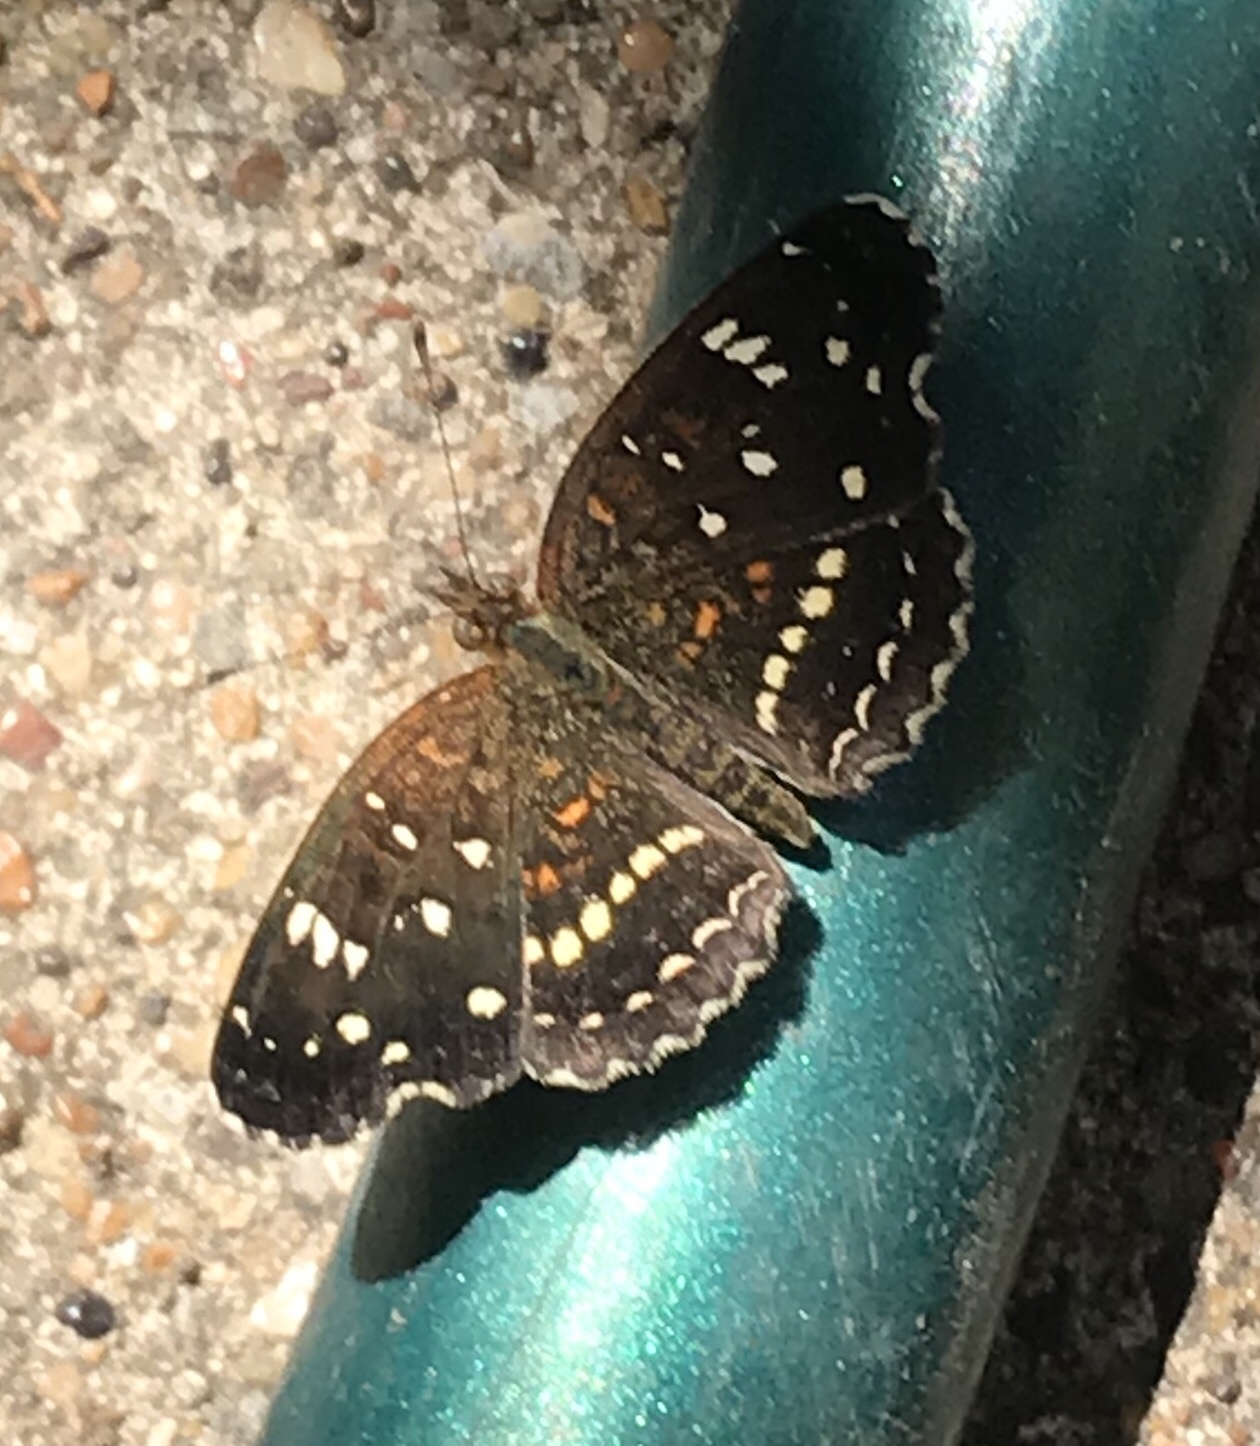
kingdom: Animalia
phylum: Arthropoda
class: Insecta
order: Lepidoptera
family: Nymphalidae
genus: Anthanassa
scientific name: Anthanassa texana
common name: Texan crescent
